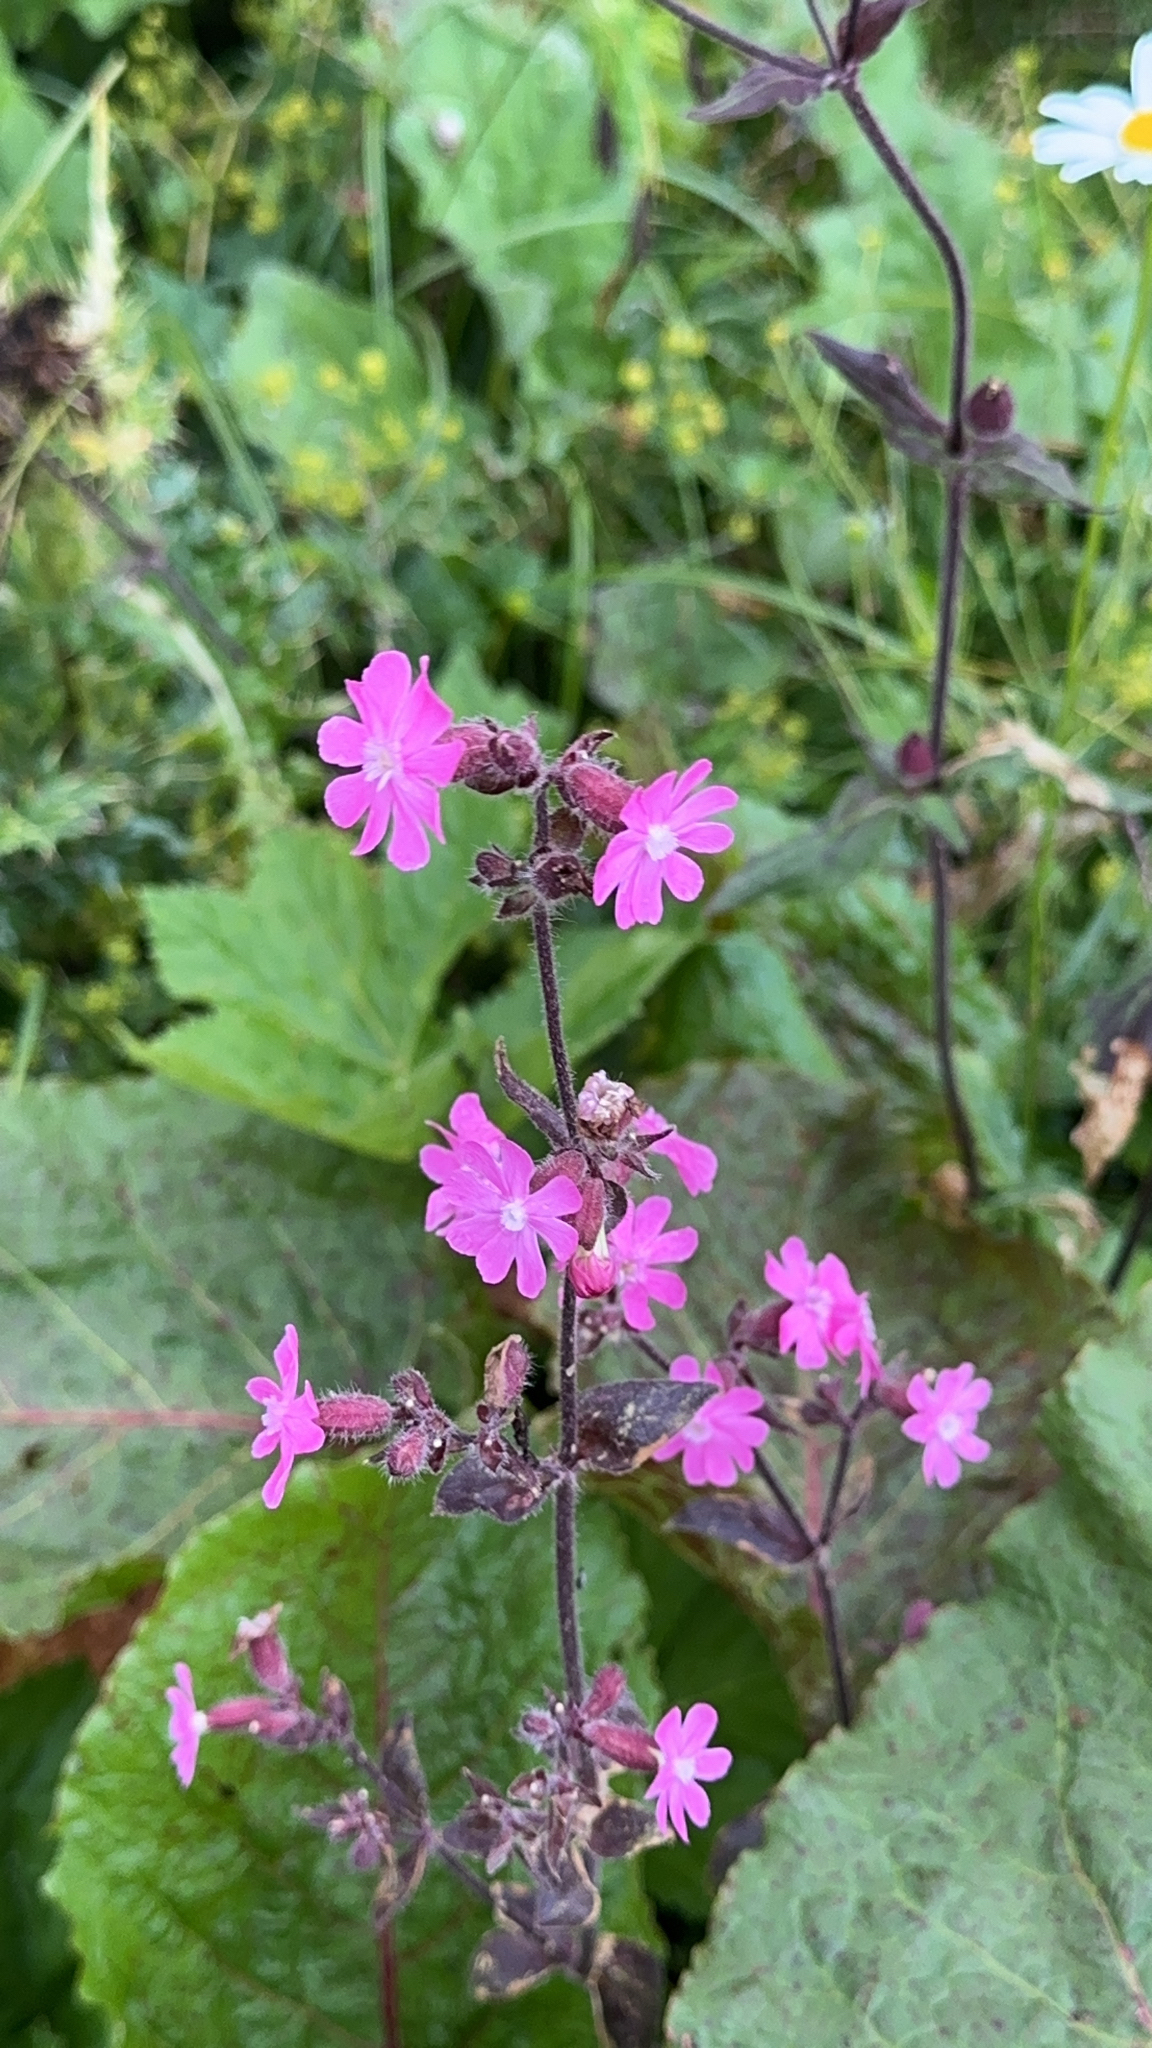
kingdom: Plantae
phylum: Tracheophyta
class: Magnoliopsida
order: Caryophyllales
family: Caryophyllaceae
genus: Silene
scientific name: Silene dioica
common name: Red campion
